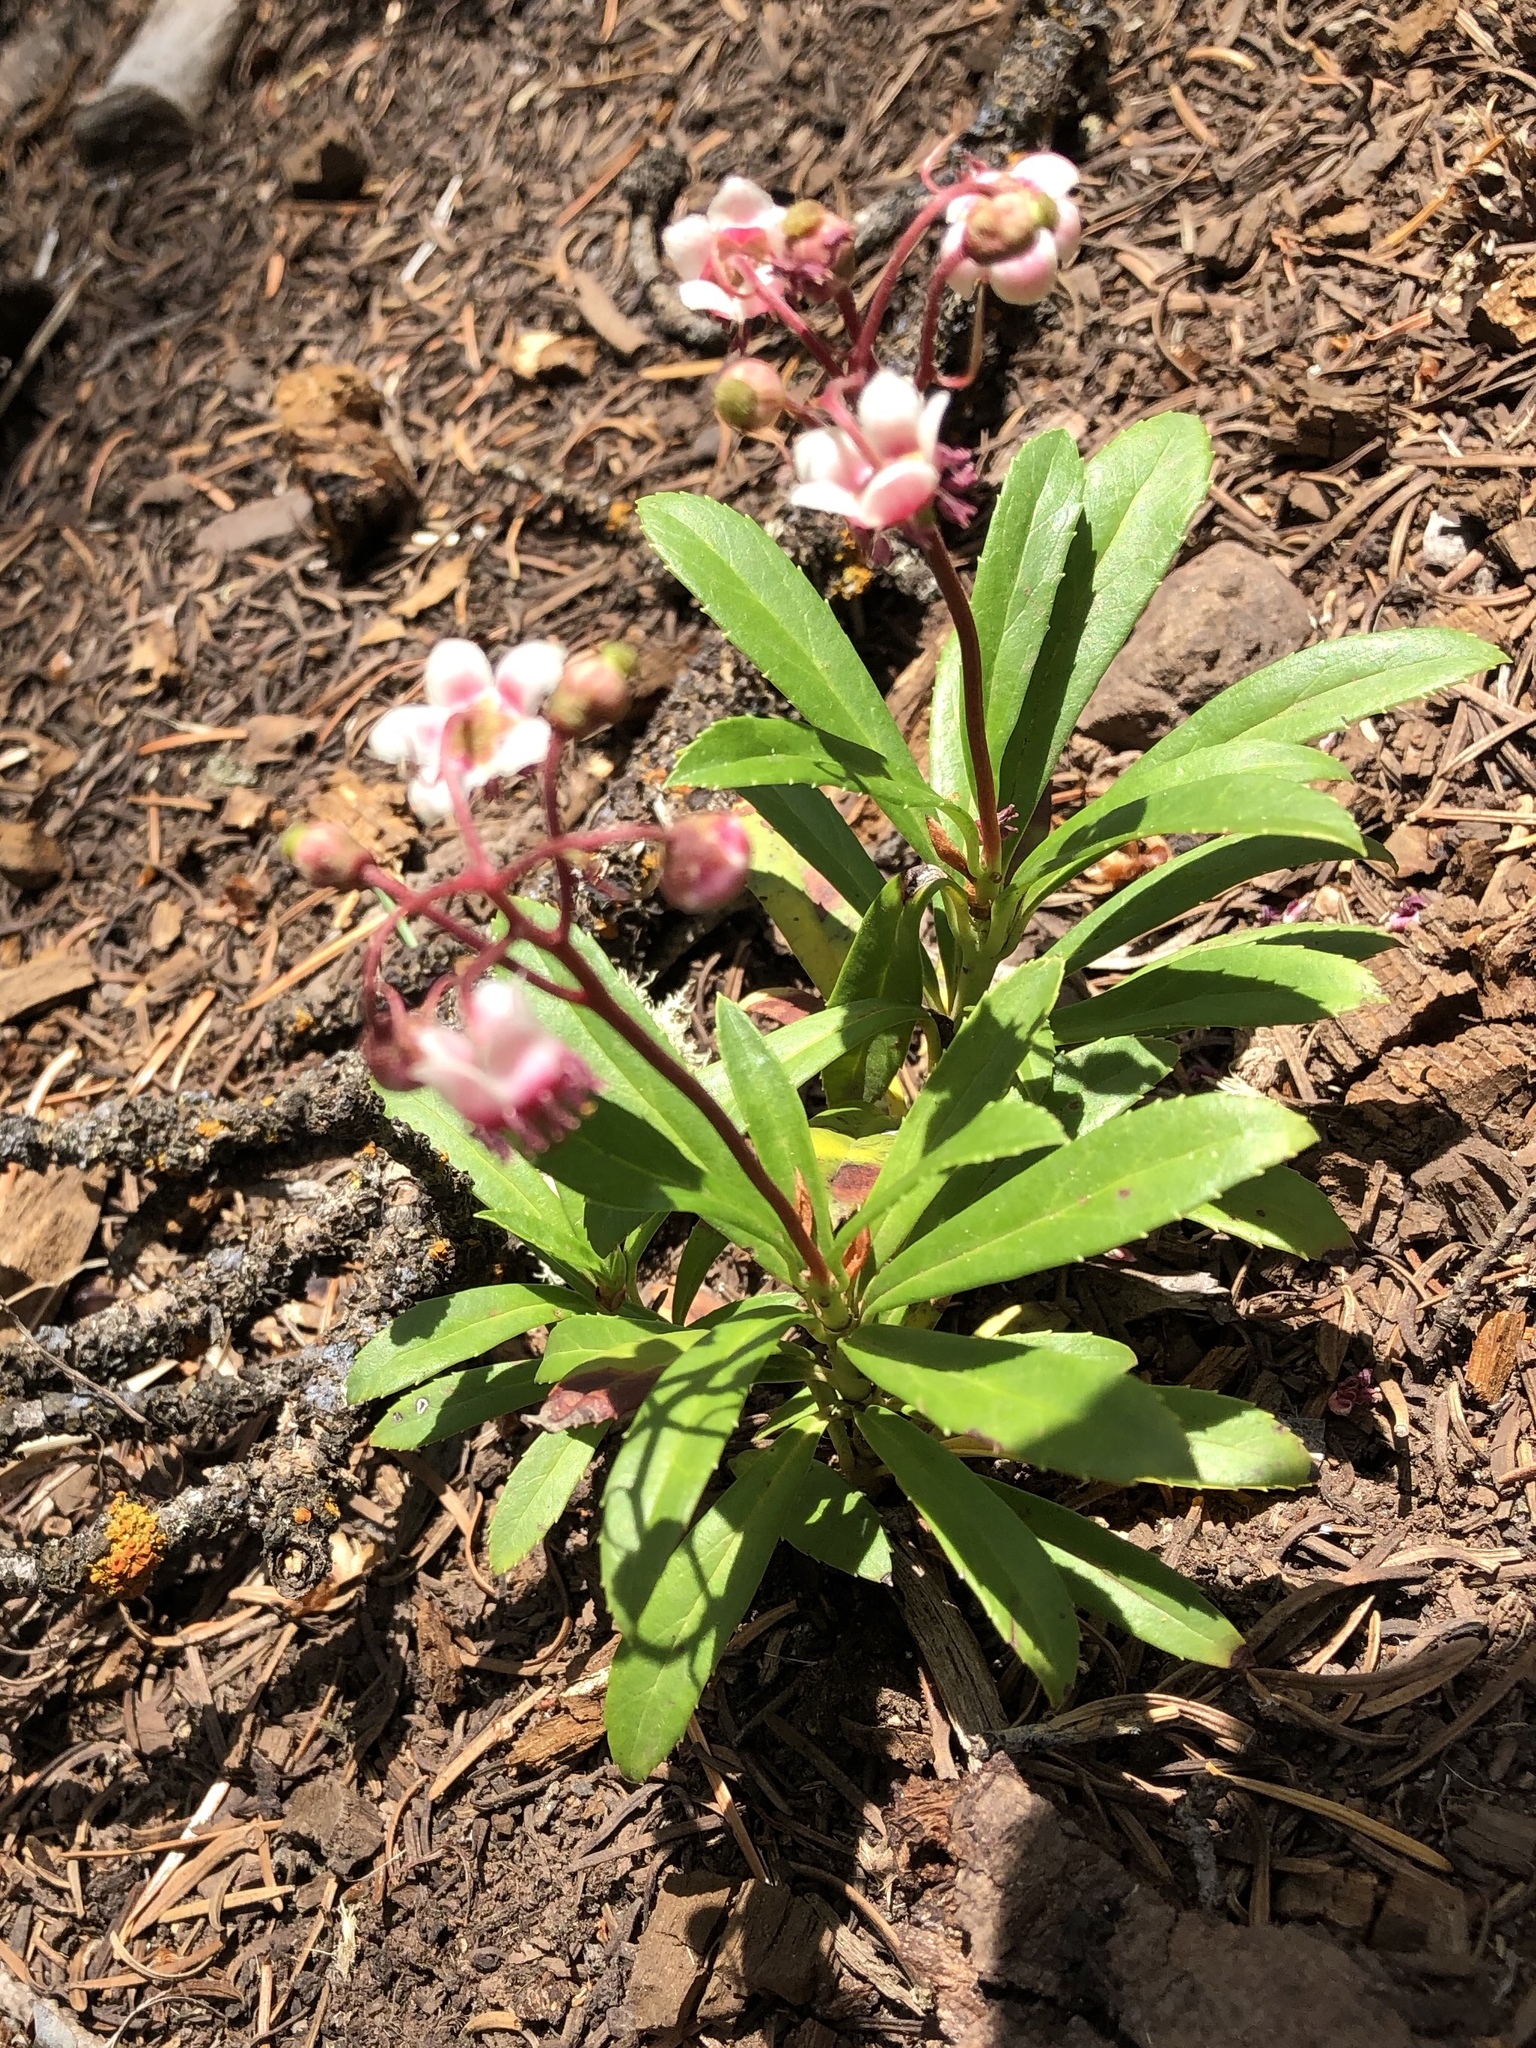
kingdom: Plantae
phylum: Tracheophyta
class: Magnoliopsida
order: Ericales
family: Ericaceae
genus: Chimaphila
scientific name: Chimaphila umbellata
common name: Pipsissewa
